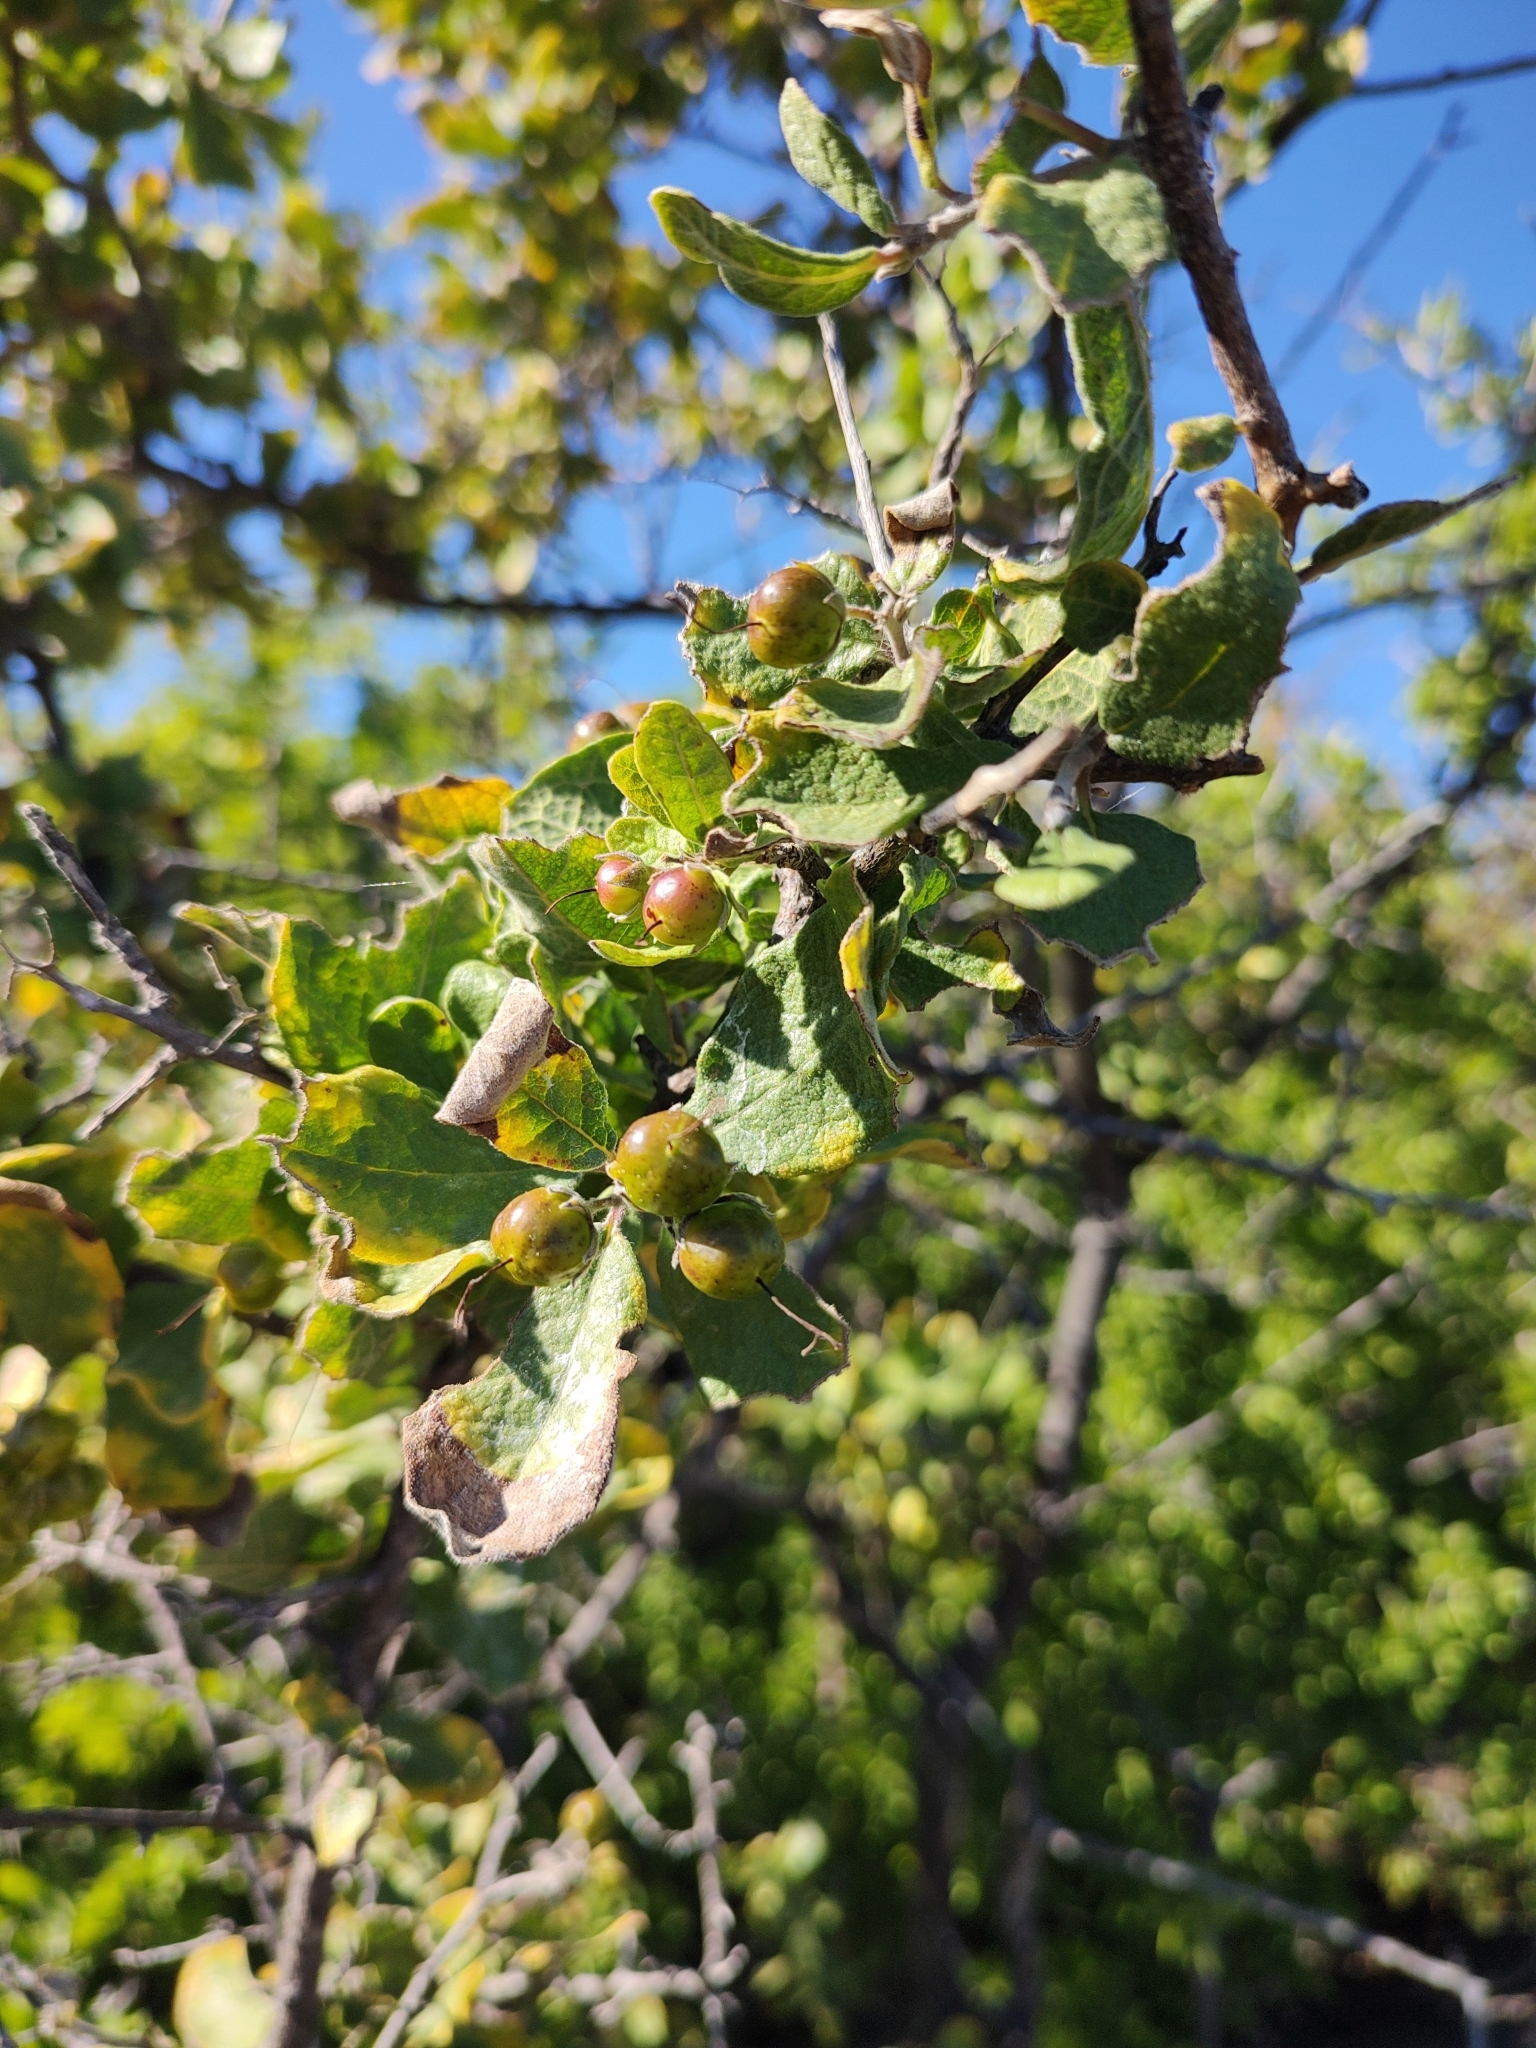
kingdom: Plantae
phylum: Tracheophyta
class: Magnoliopsida
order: Boraginales
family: Ehretiaceae
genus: Bourreria
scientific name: Bourreria sonorae
